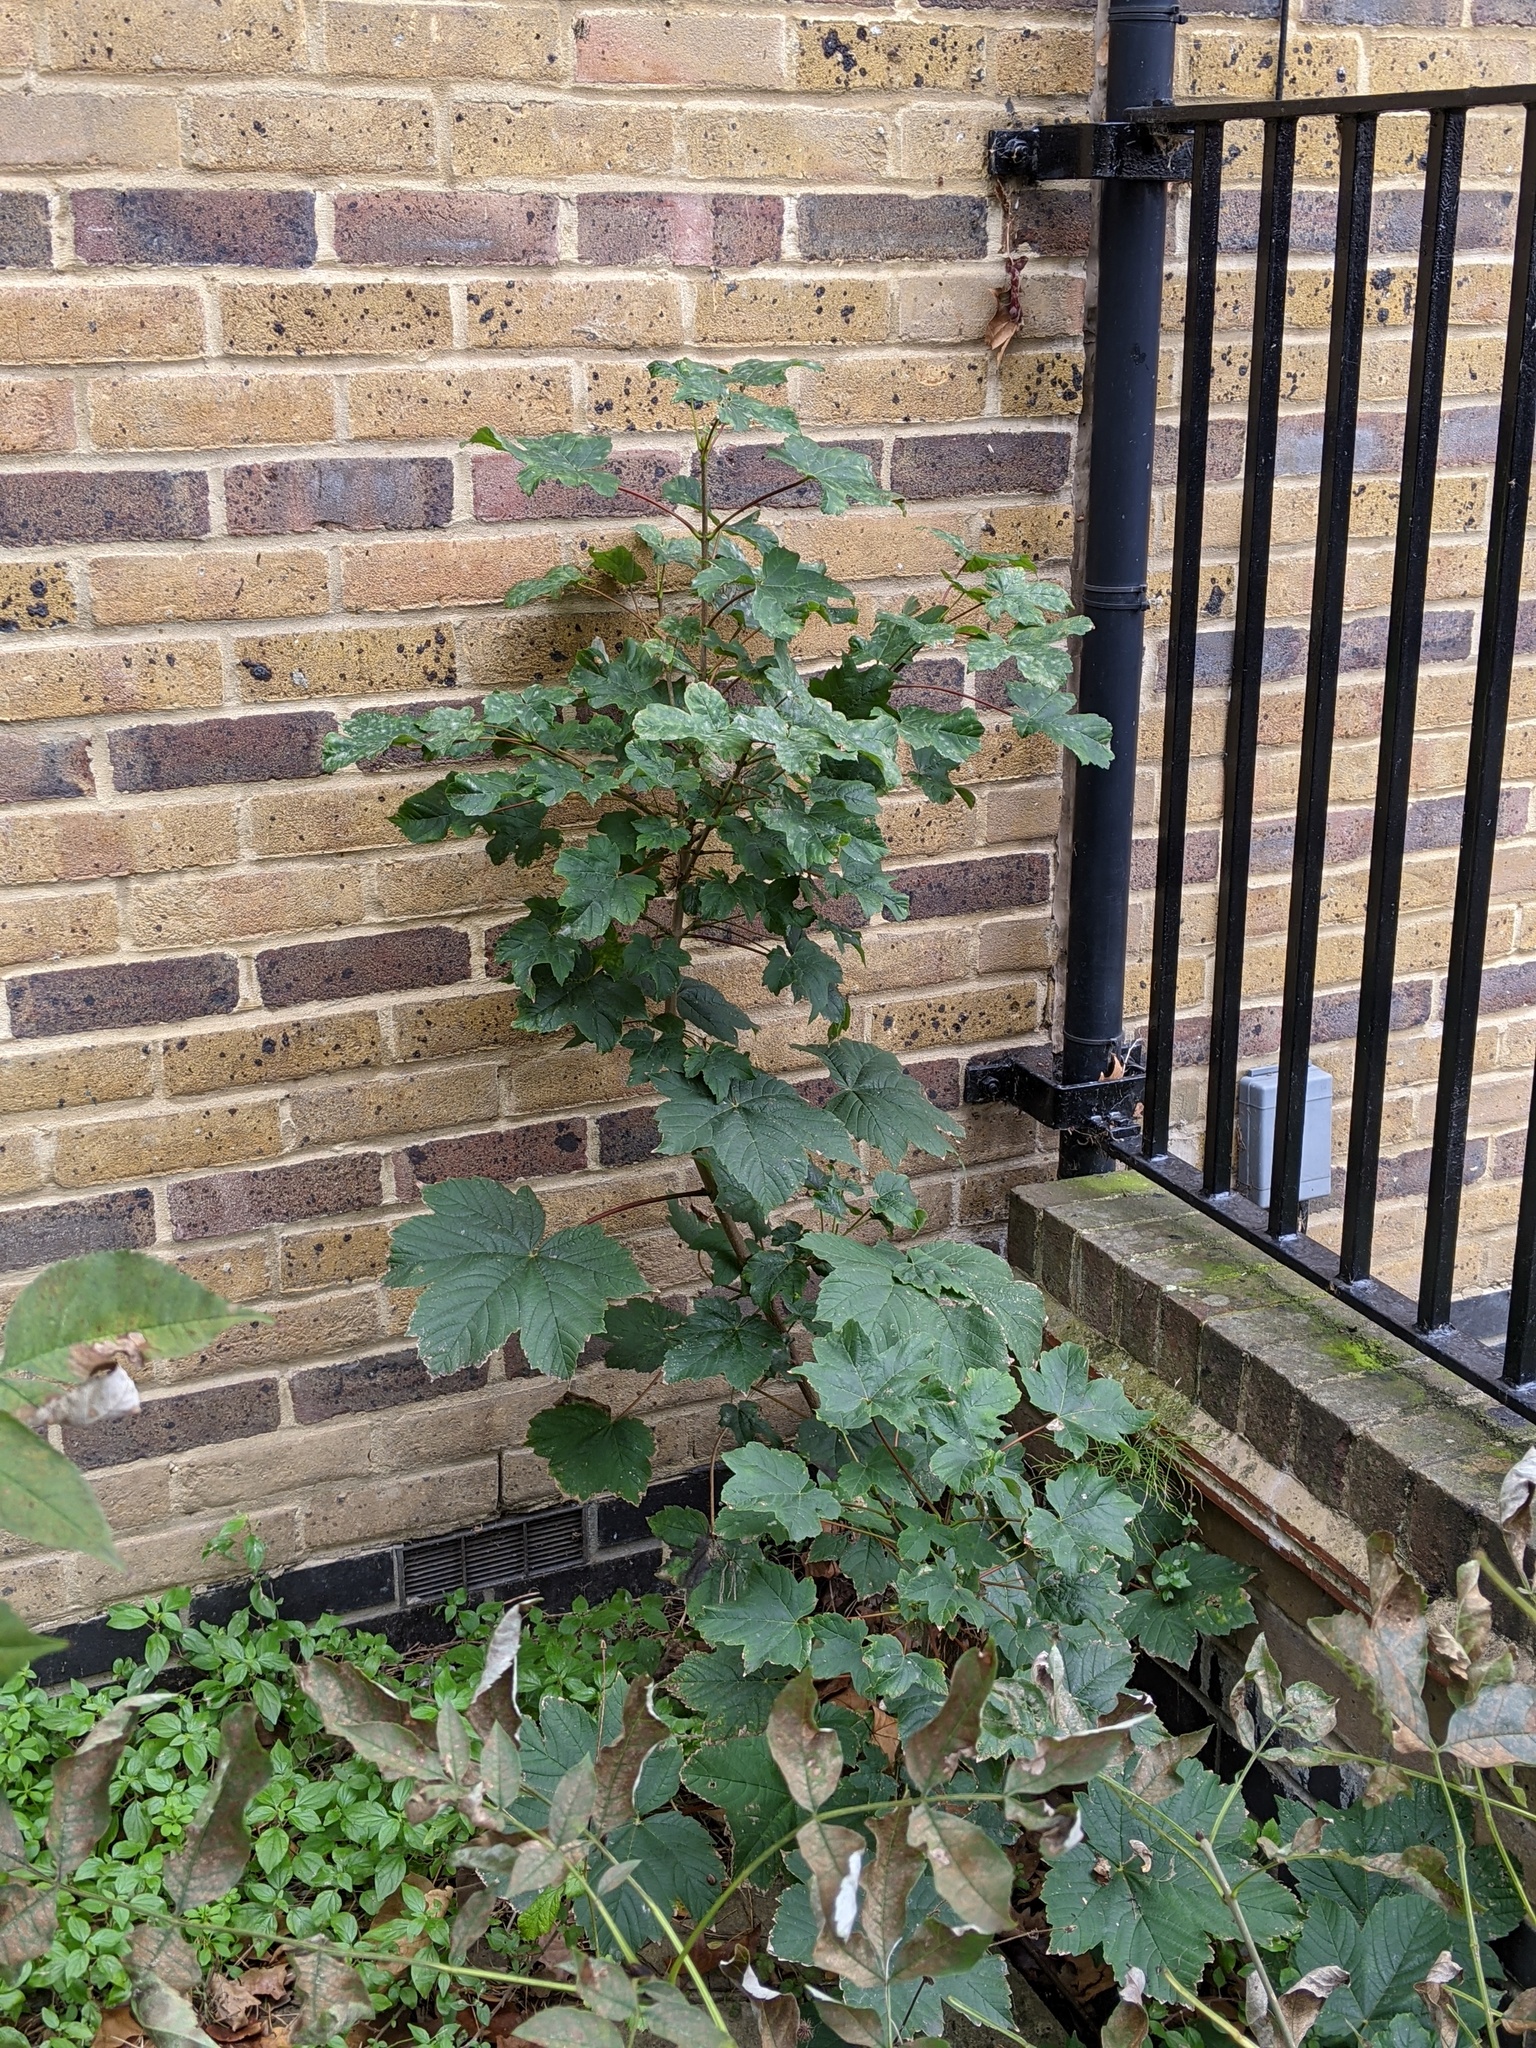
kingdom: Plantae
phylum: Tracheophyta
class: Magnoliopsida
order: Sapindales
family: Sapindaceae
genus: Acer
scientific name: Acer pseudoplatanus
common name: Sycamore
